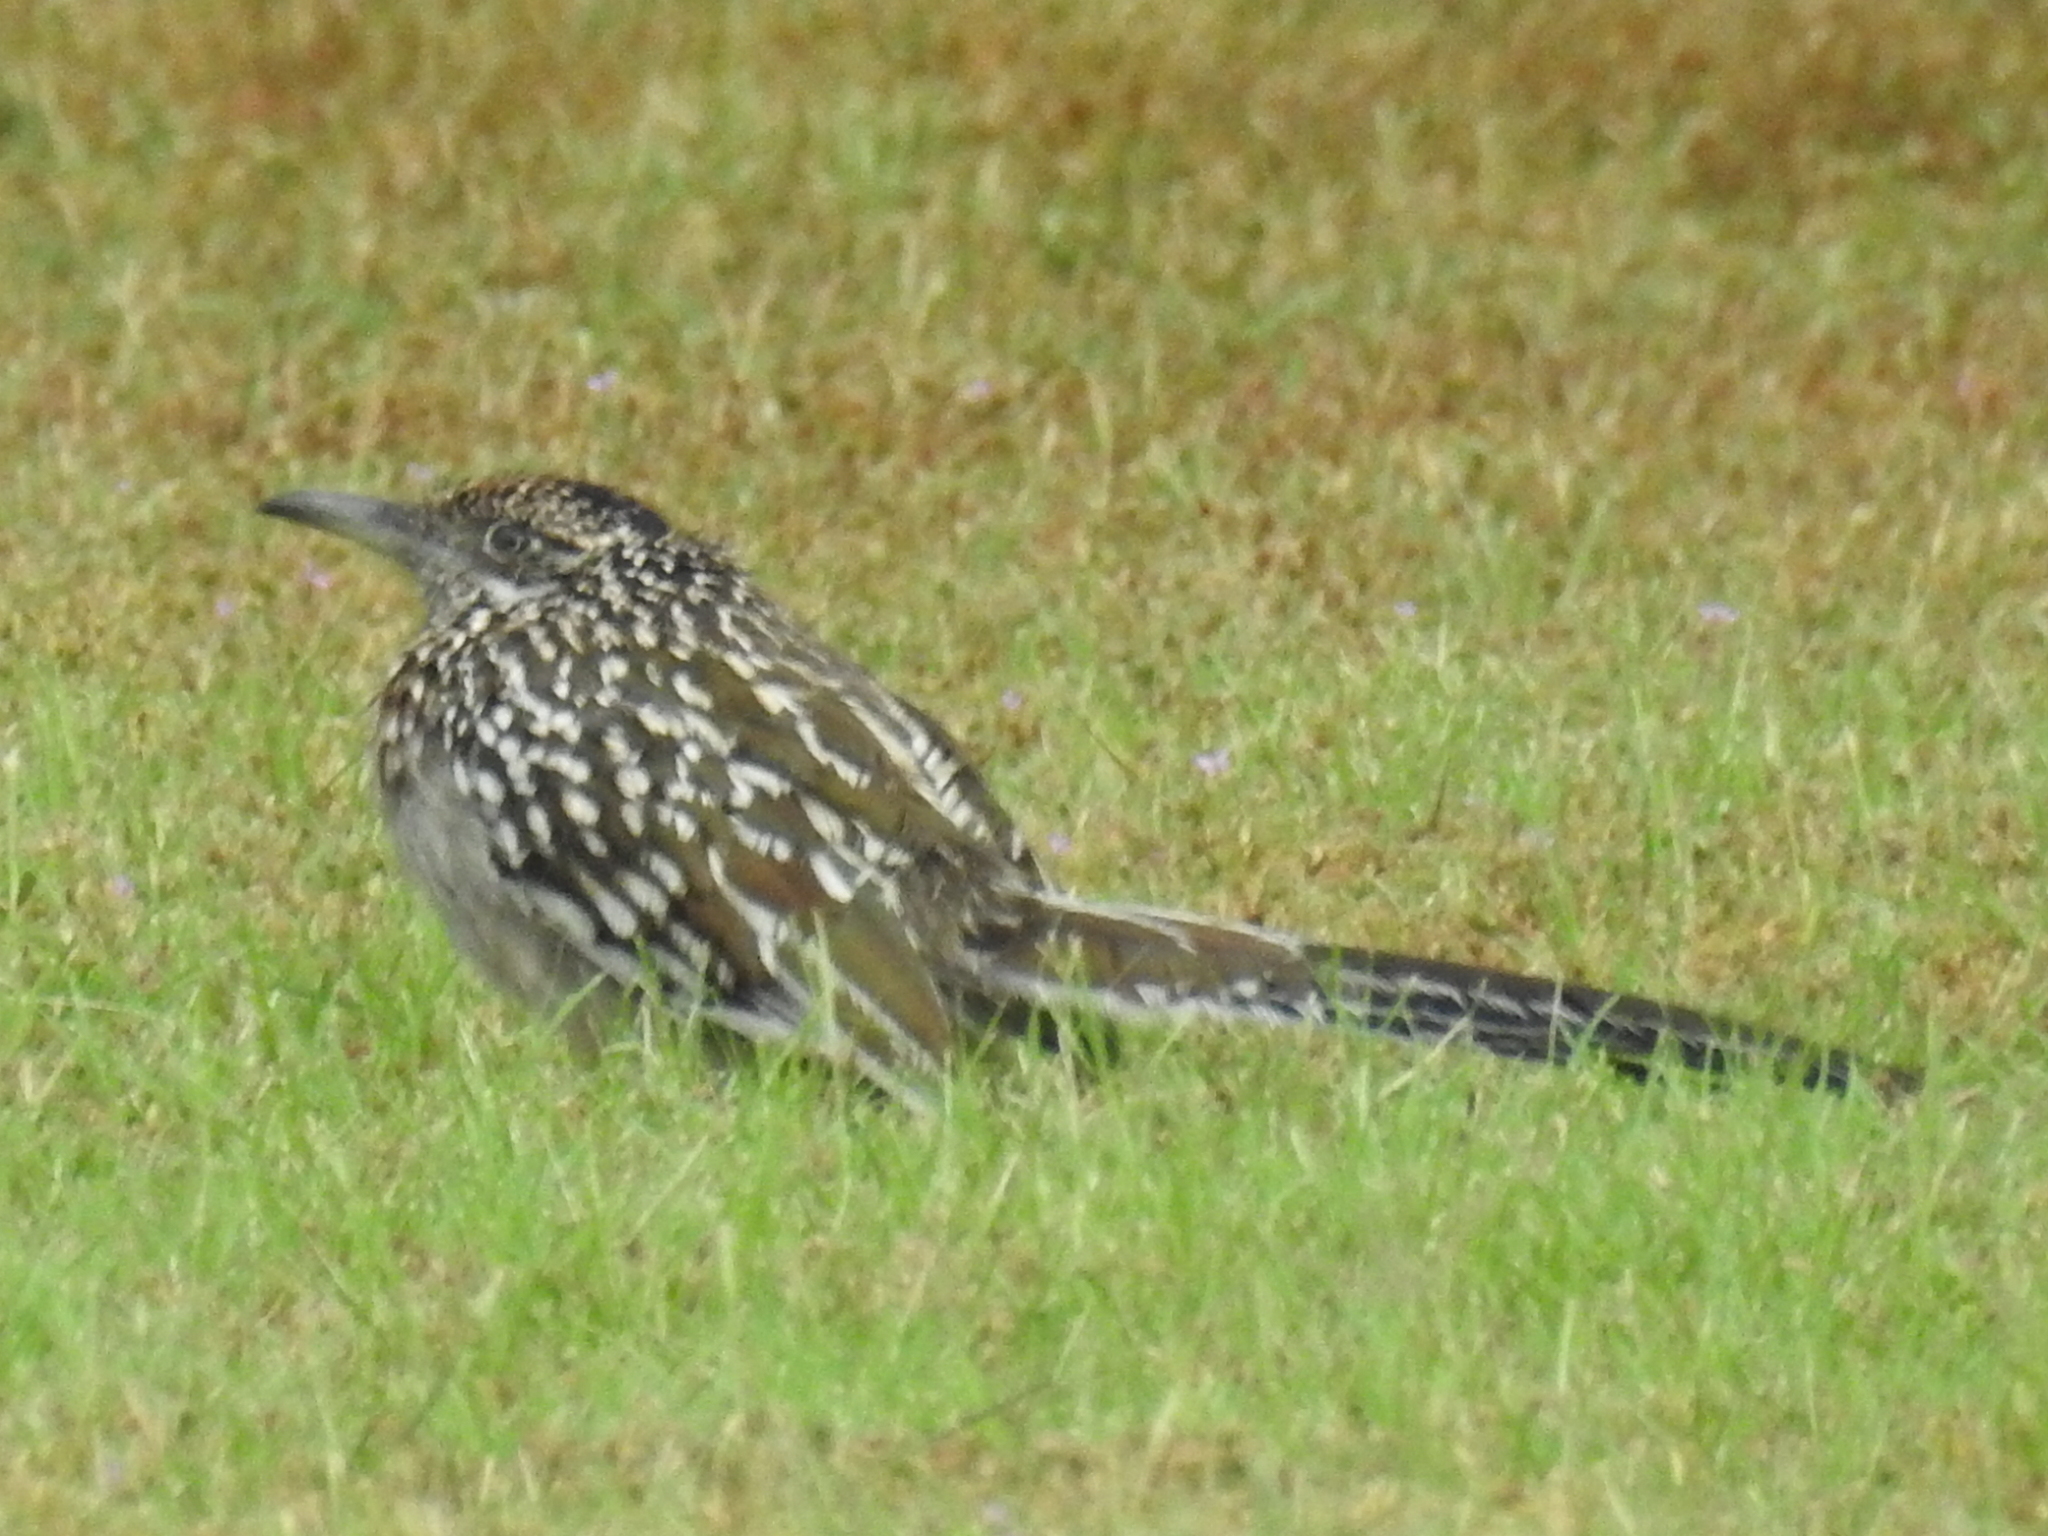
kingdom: Animalia
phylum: Chordata
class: Aves
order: Cuculiformes
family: Cuculidae
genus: Geococcyx
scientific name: Geococcyx californianus
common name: Greater roadrunner
